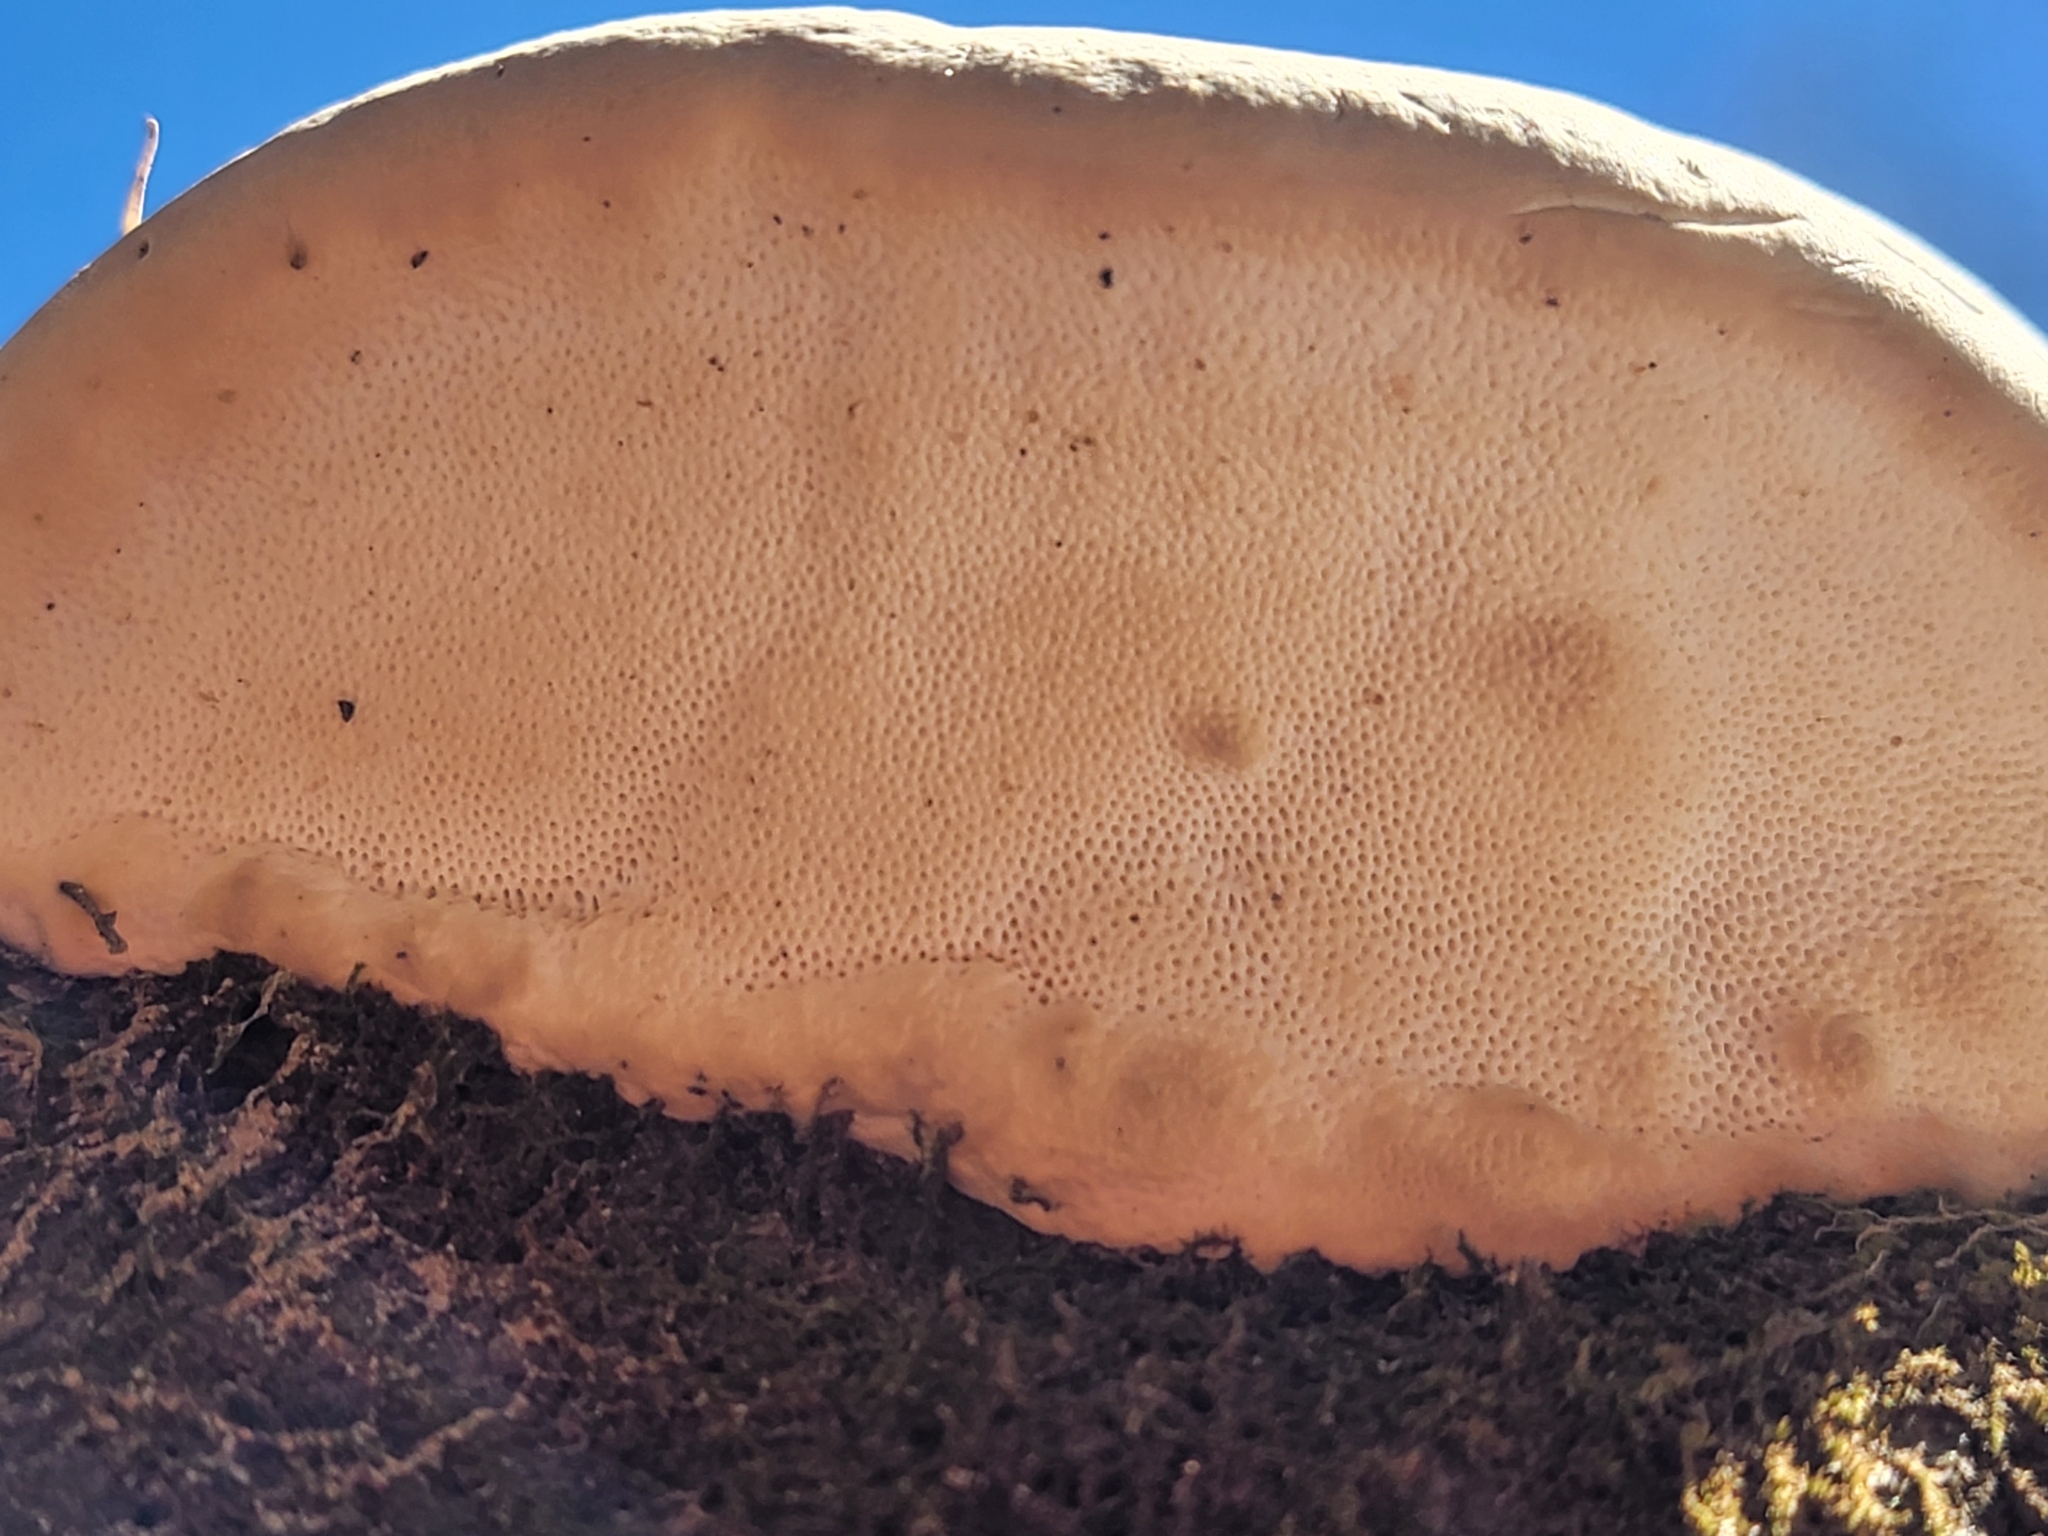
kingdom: Fungi
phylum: Basidiomycota
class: Agaricomycetes
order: Polyporales
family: Polyporaceae
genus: Trametes
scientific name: Trametes lactinea
